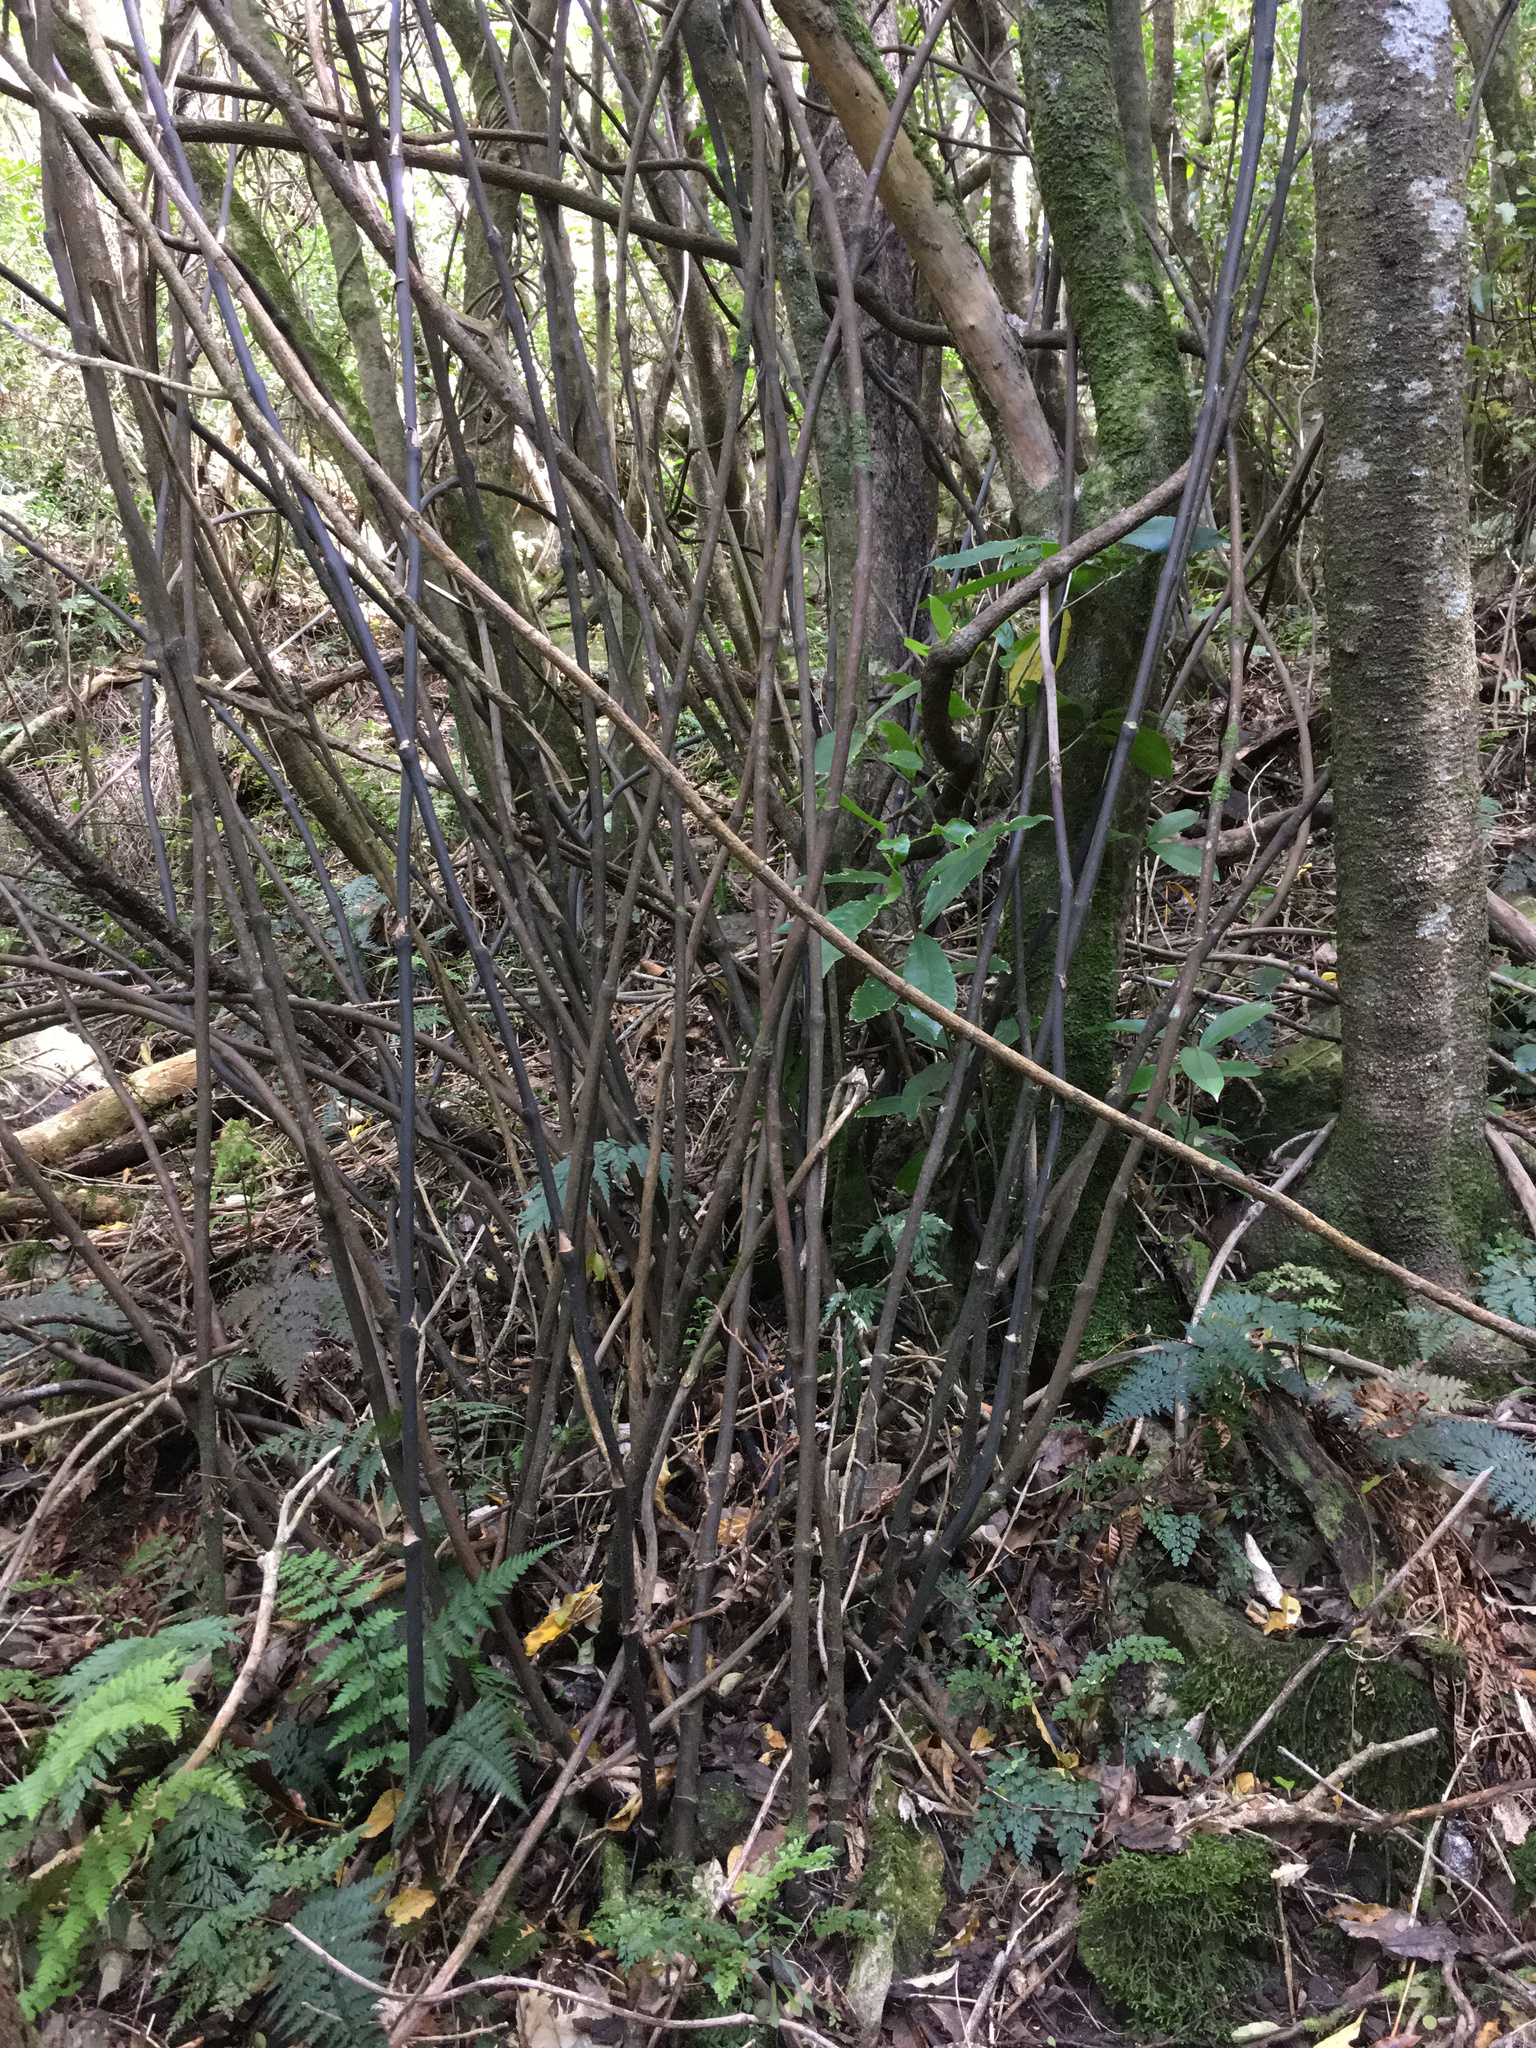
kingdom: Plantae
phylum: Tracheophyta
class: Liliopsida
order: Liliales
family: Ripogonaceae
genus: Ripogonum
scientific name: Ripogonum scandens
